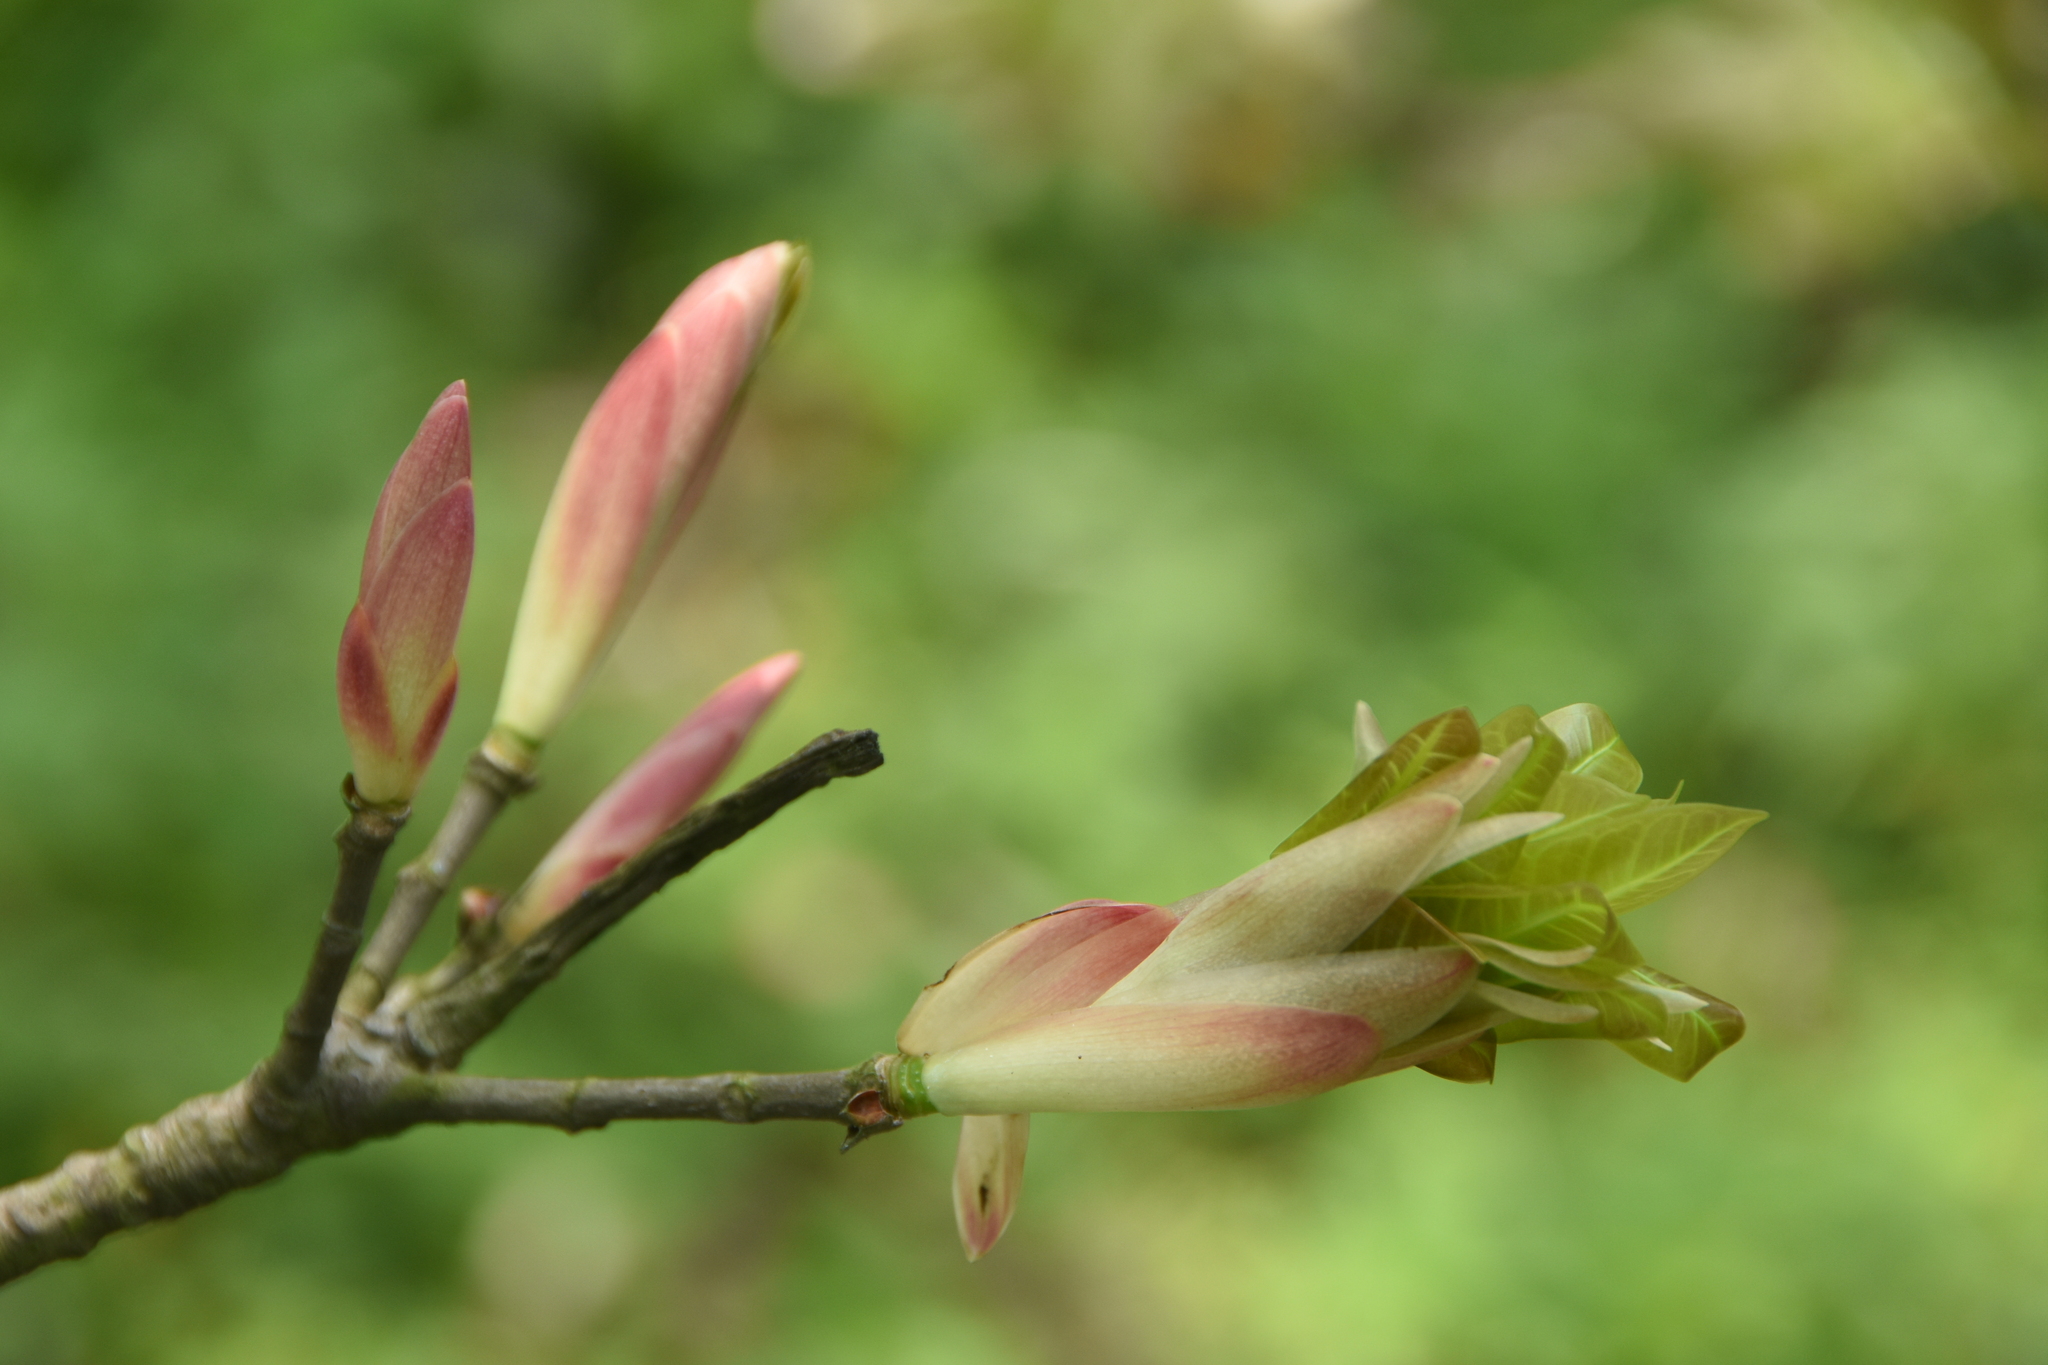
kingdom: Plantae
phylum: Tracheophyta
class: Magnoliopsida
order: Rosales
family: Moraceae
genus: Ficus
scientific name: Ficus subpisocarpa
